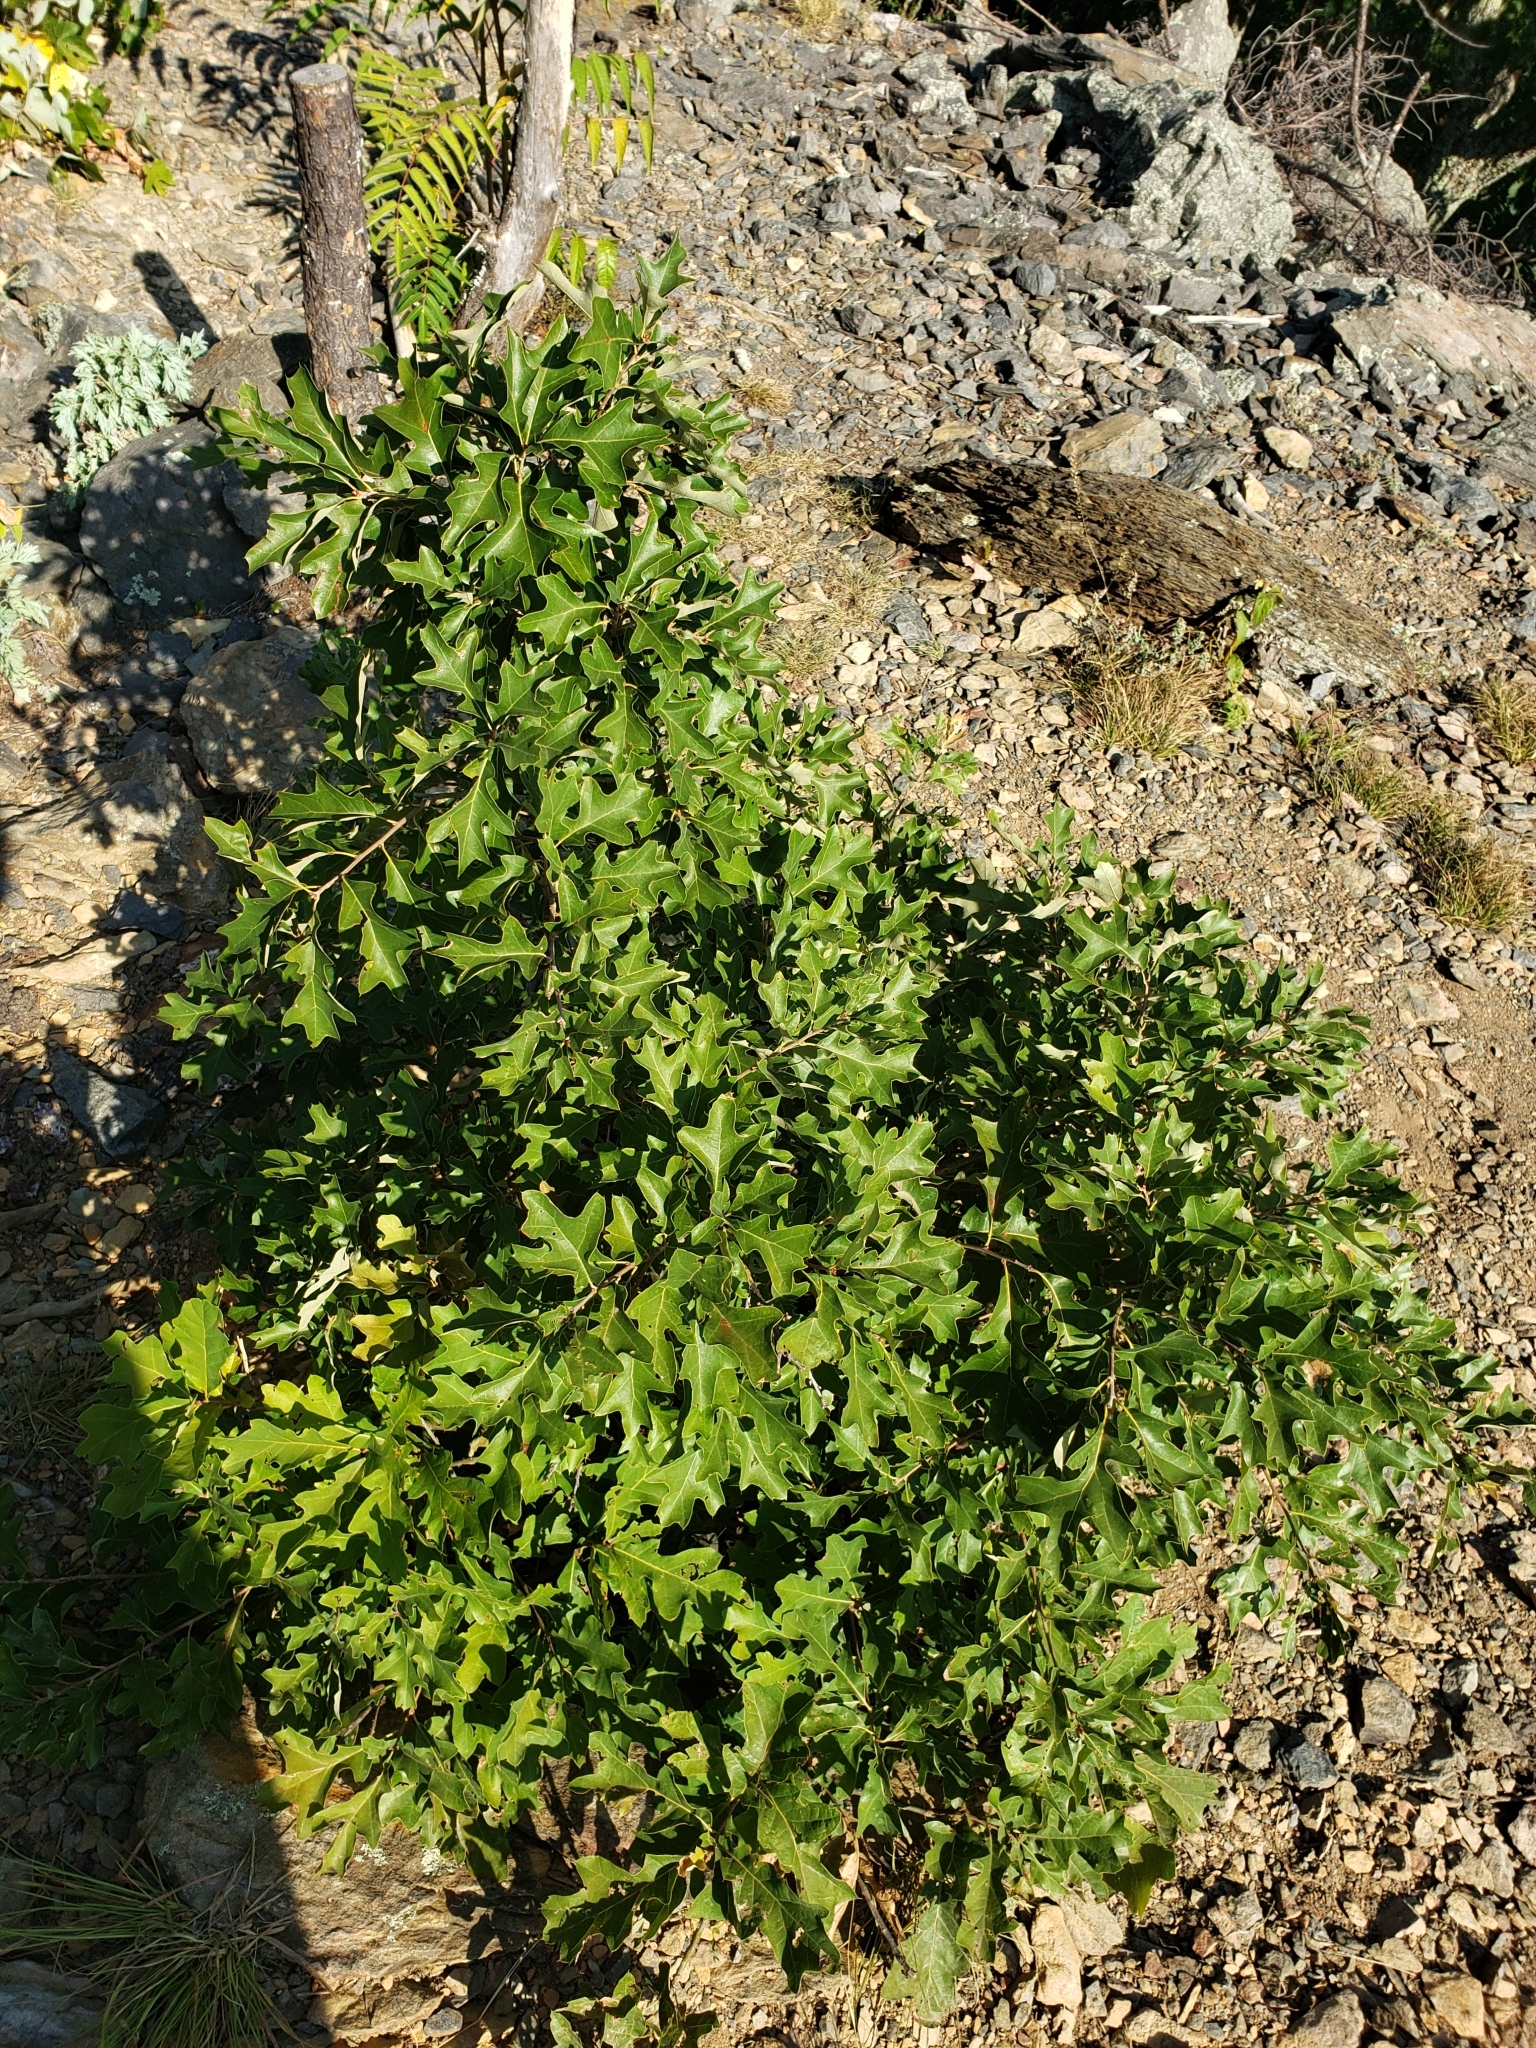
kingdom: Plantae
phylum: Tracheophyta
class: Magnoliopsida
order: Fagales
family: Fagaceae
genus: Quercus
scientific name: Quercus ilicifolia
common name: Bear oak
